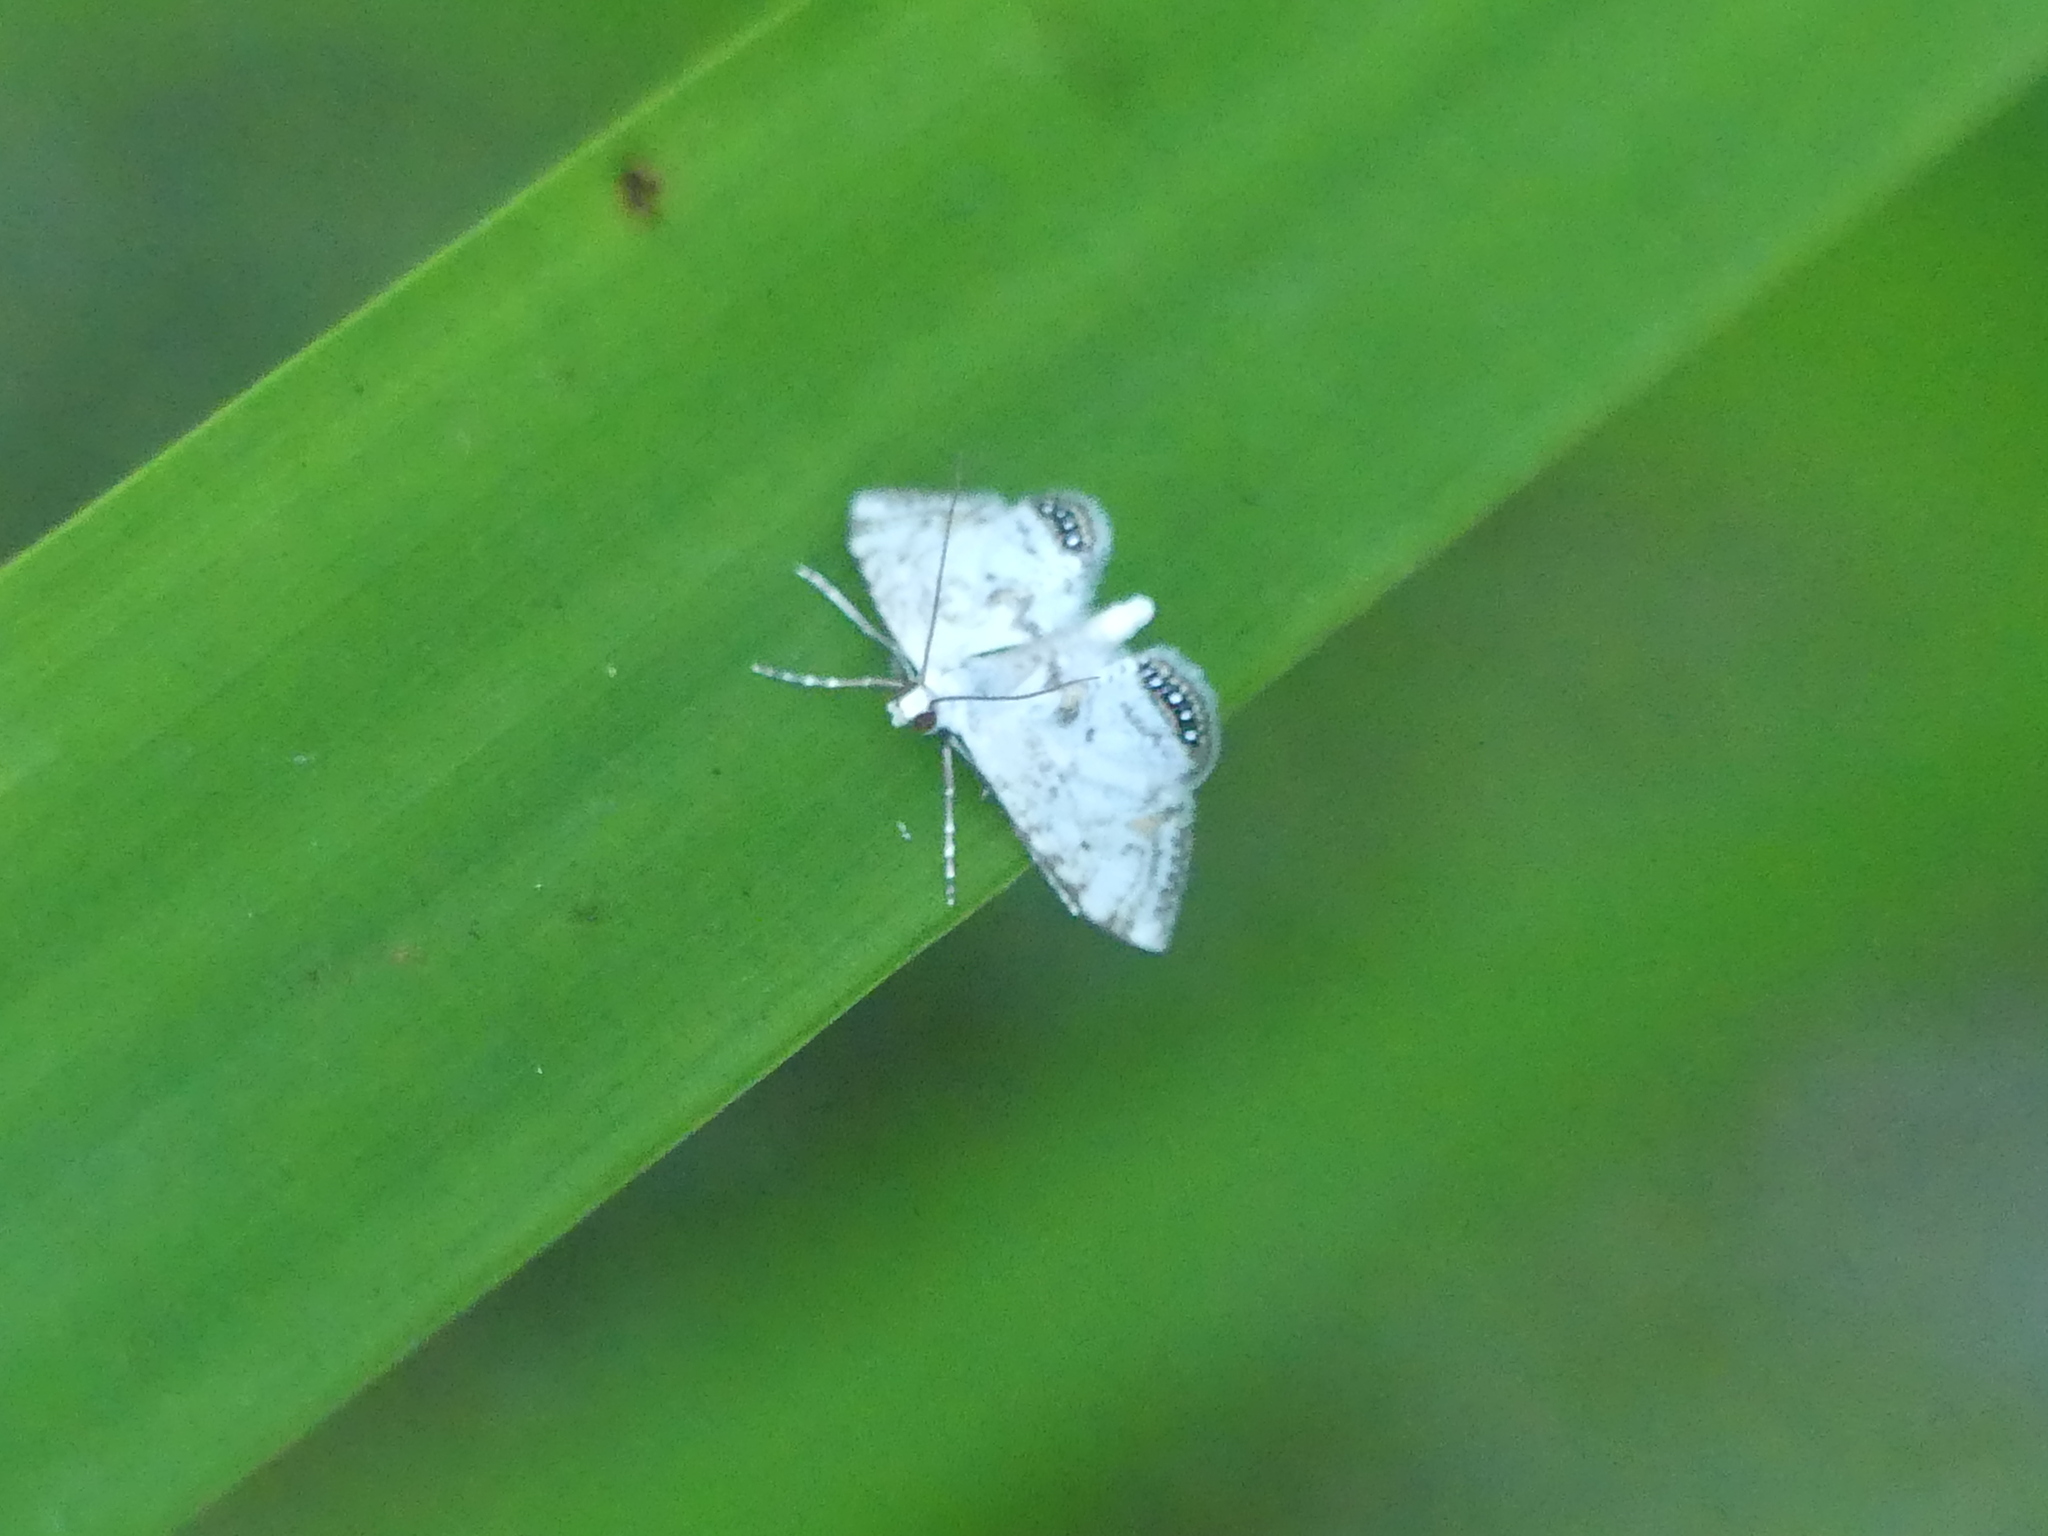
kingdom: Animalia
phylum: Arthropoda
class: Insecta
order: Lepidoptera
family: Crambidae
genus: Cataclysta
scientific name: Cataclysta lemnata
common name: Small china-mark
